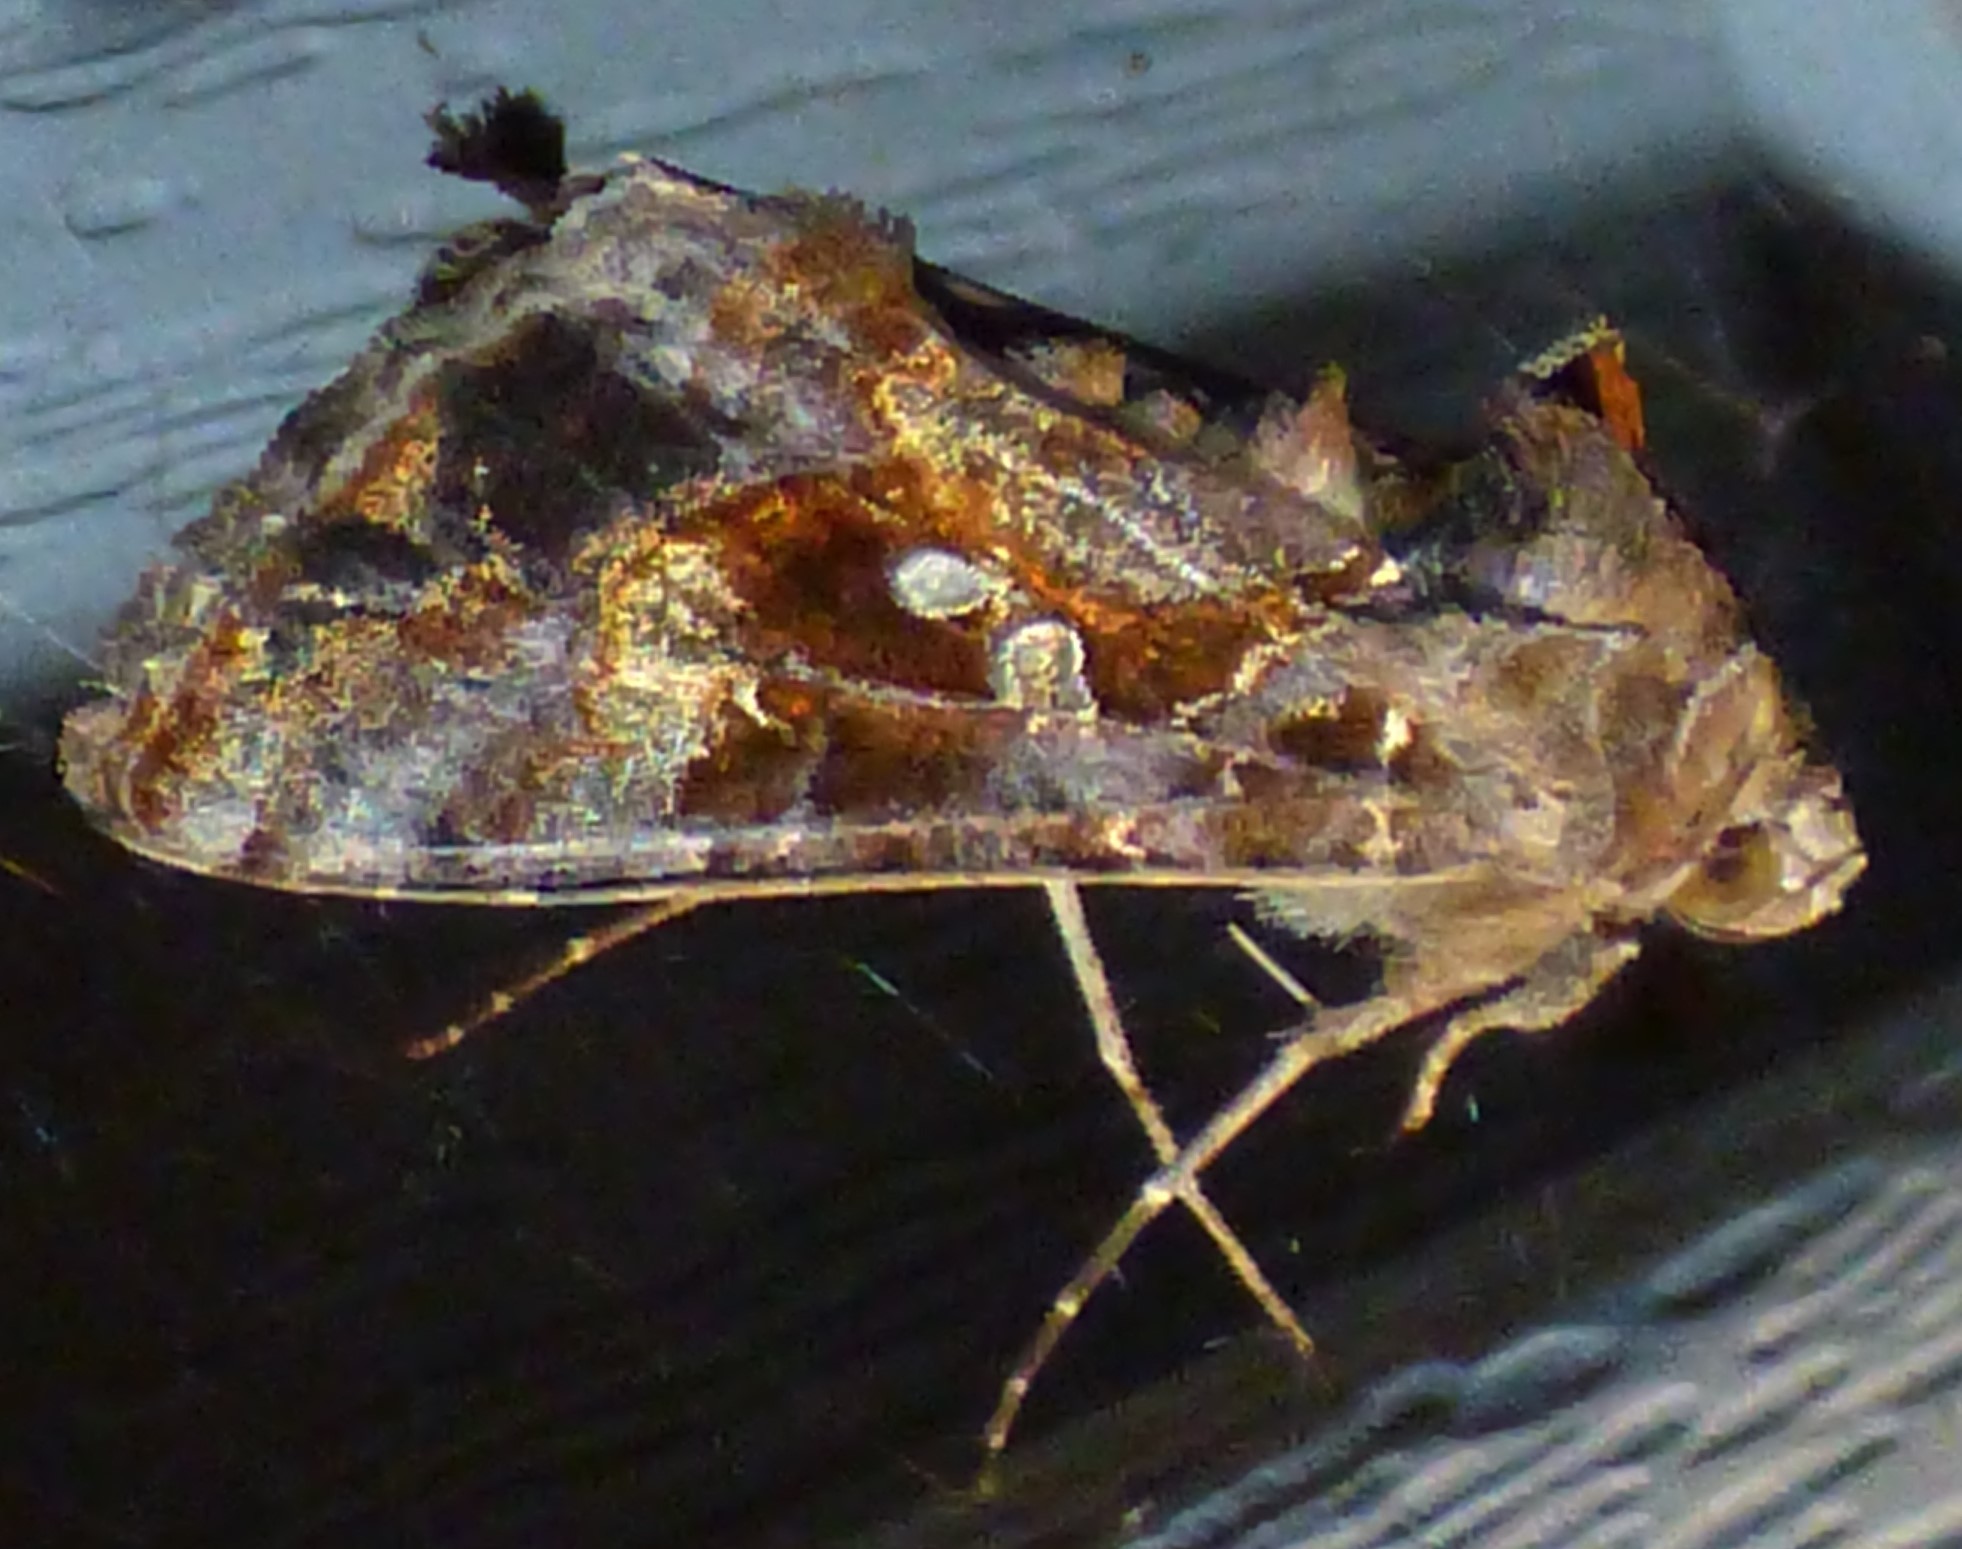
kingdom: Animalia
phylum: Arthropoda
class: Insecta
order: Lepidoptera
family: Noctuidae
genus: Chrysodeixis
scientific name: Chrysodeixis includens
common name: Cutworm moth
